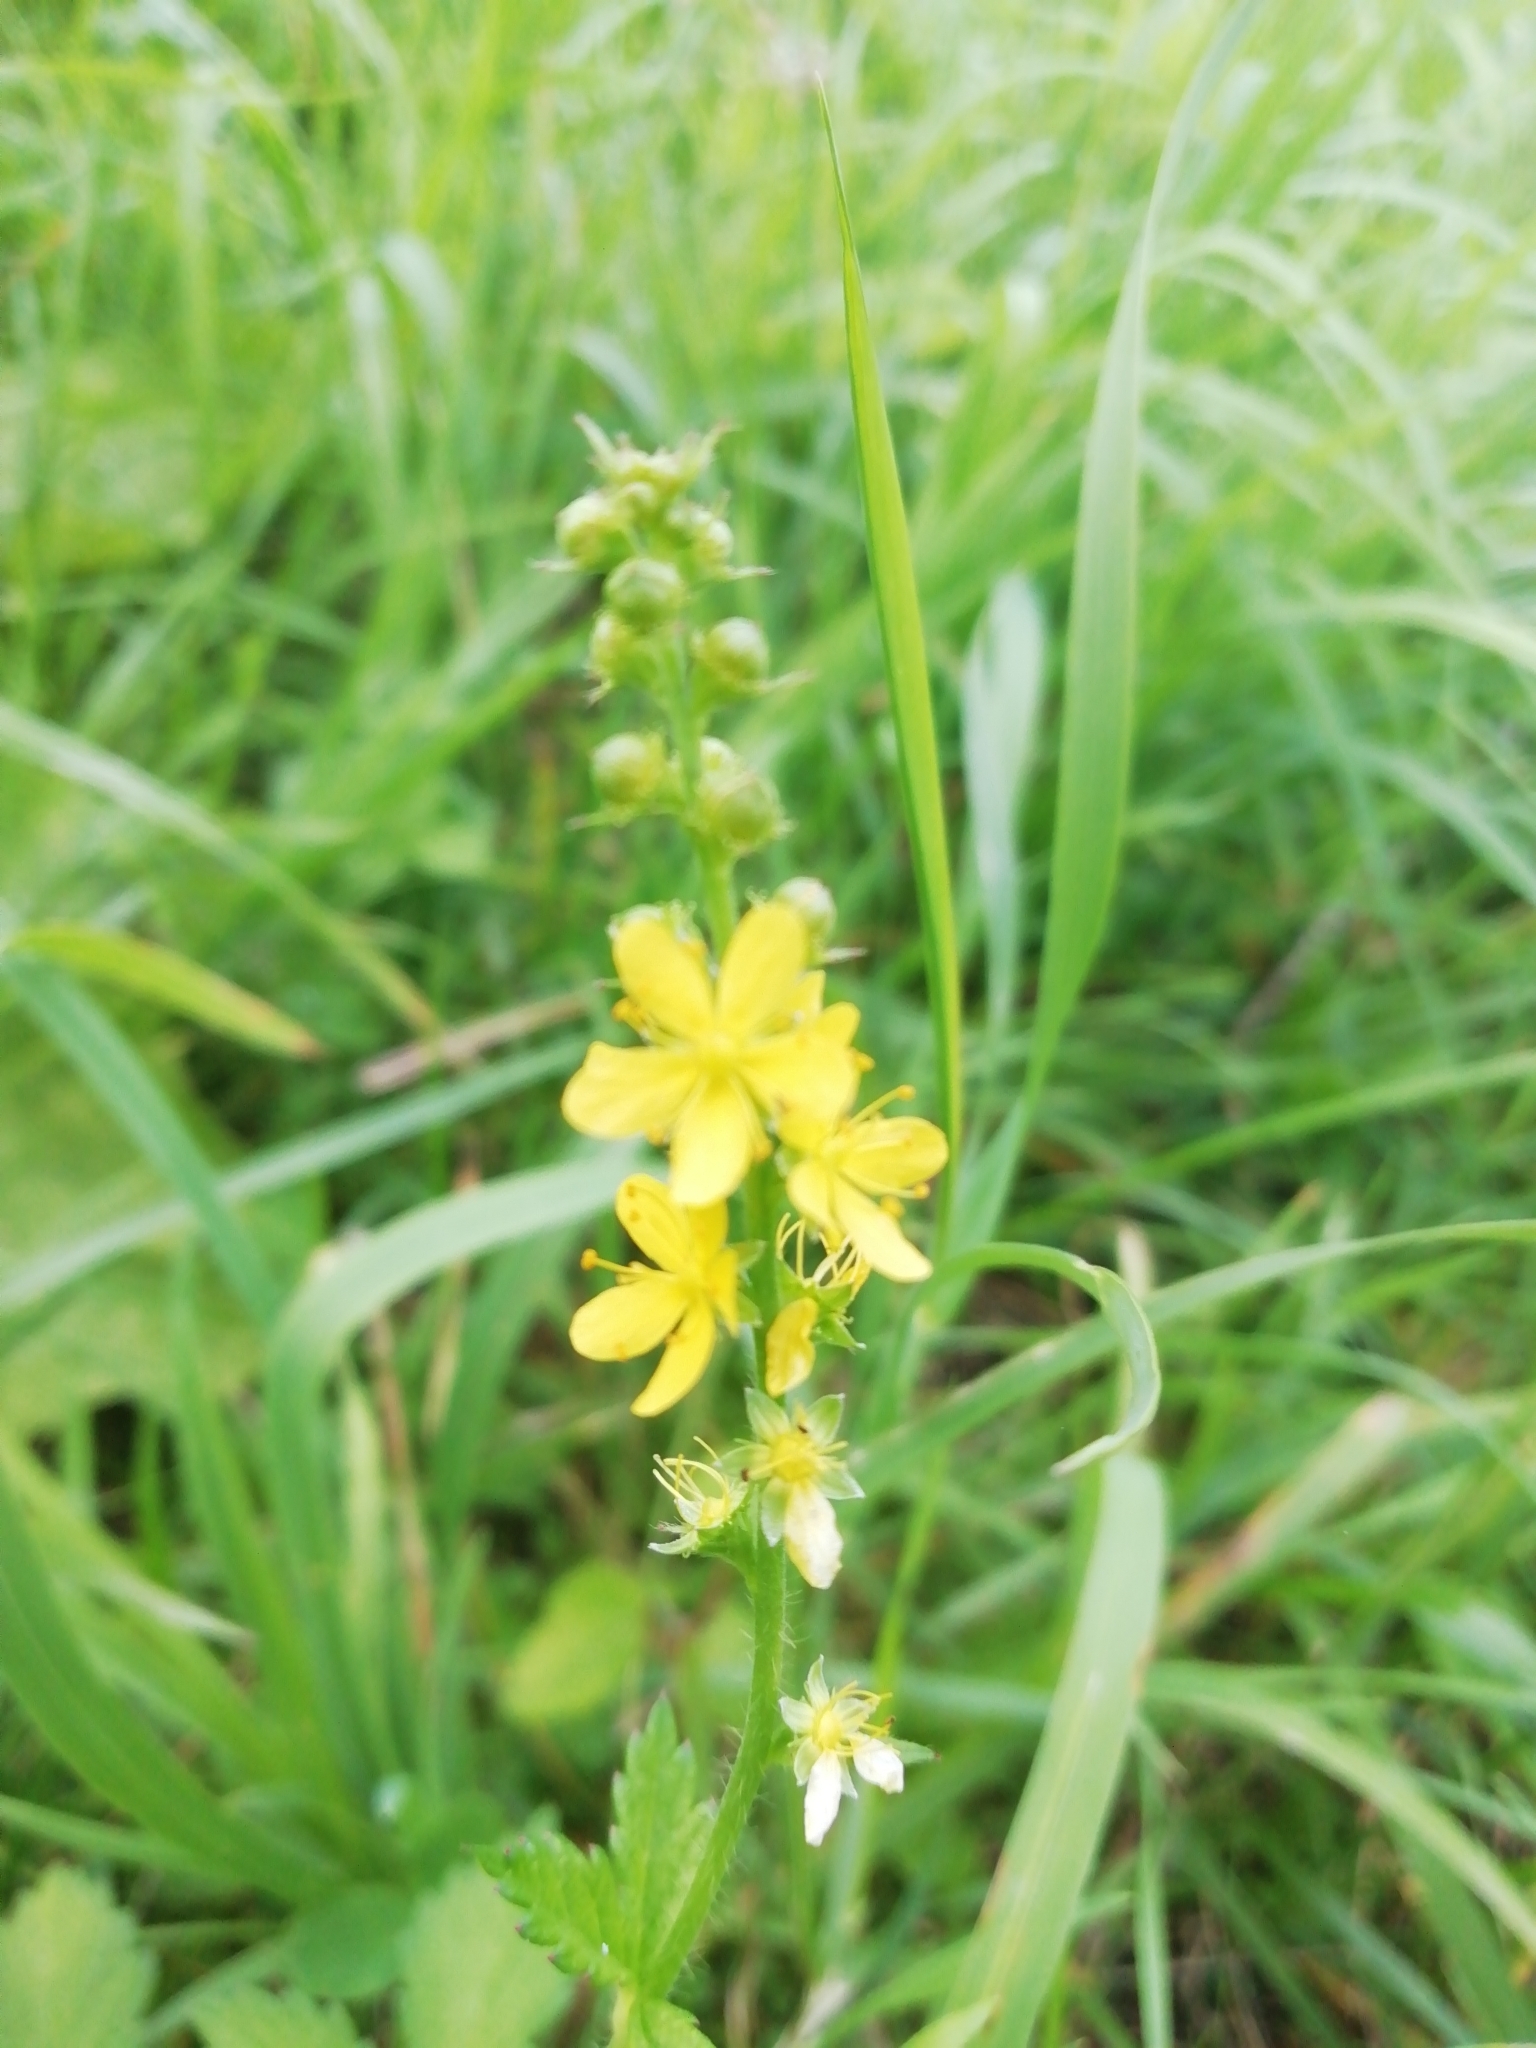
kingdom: Plantae
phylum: Tracheophyta
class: Magnoliopsida
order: Rosales
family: Rosaceae
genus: Agrimonia
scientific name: Agrimonia pilosa
